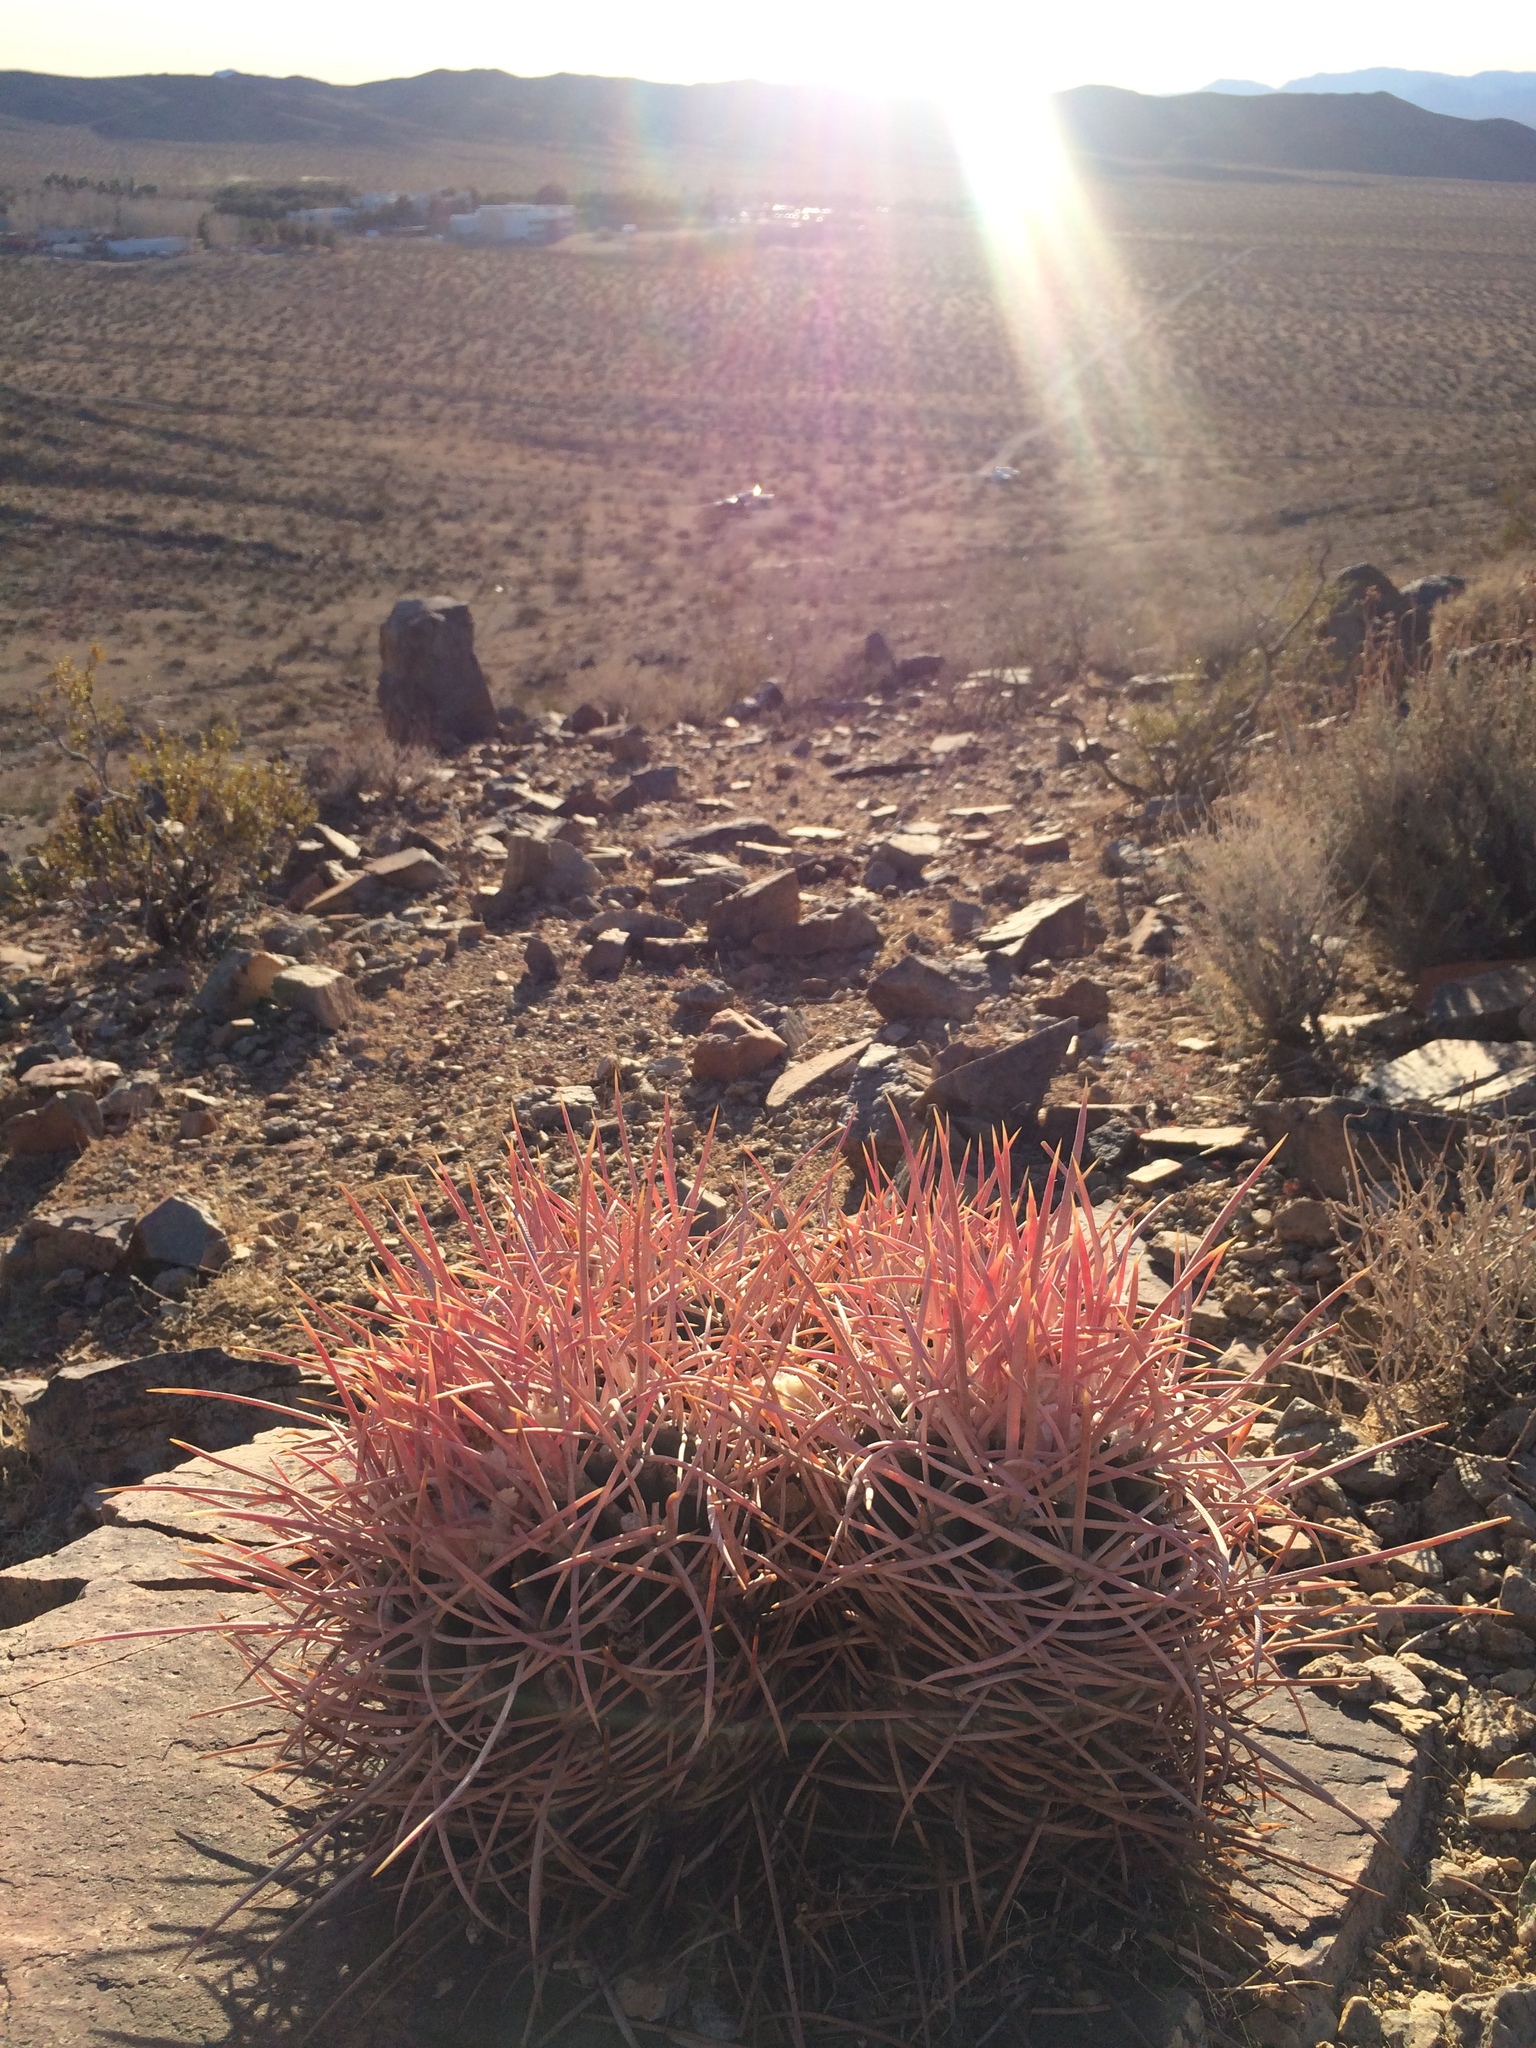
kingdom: Plantae
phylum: Tracheophyta
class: Magnoliopsida
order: Caryophyllales
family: Cactaceae
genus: Echinocactus
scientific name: Echinocactus polycephalus
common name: Cottontop cactus
